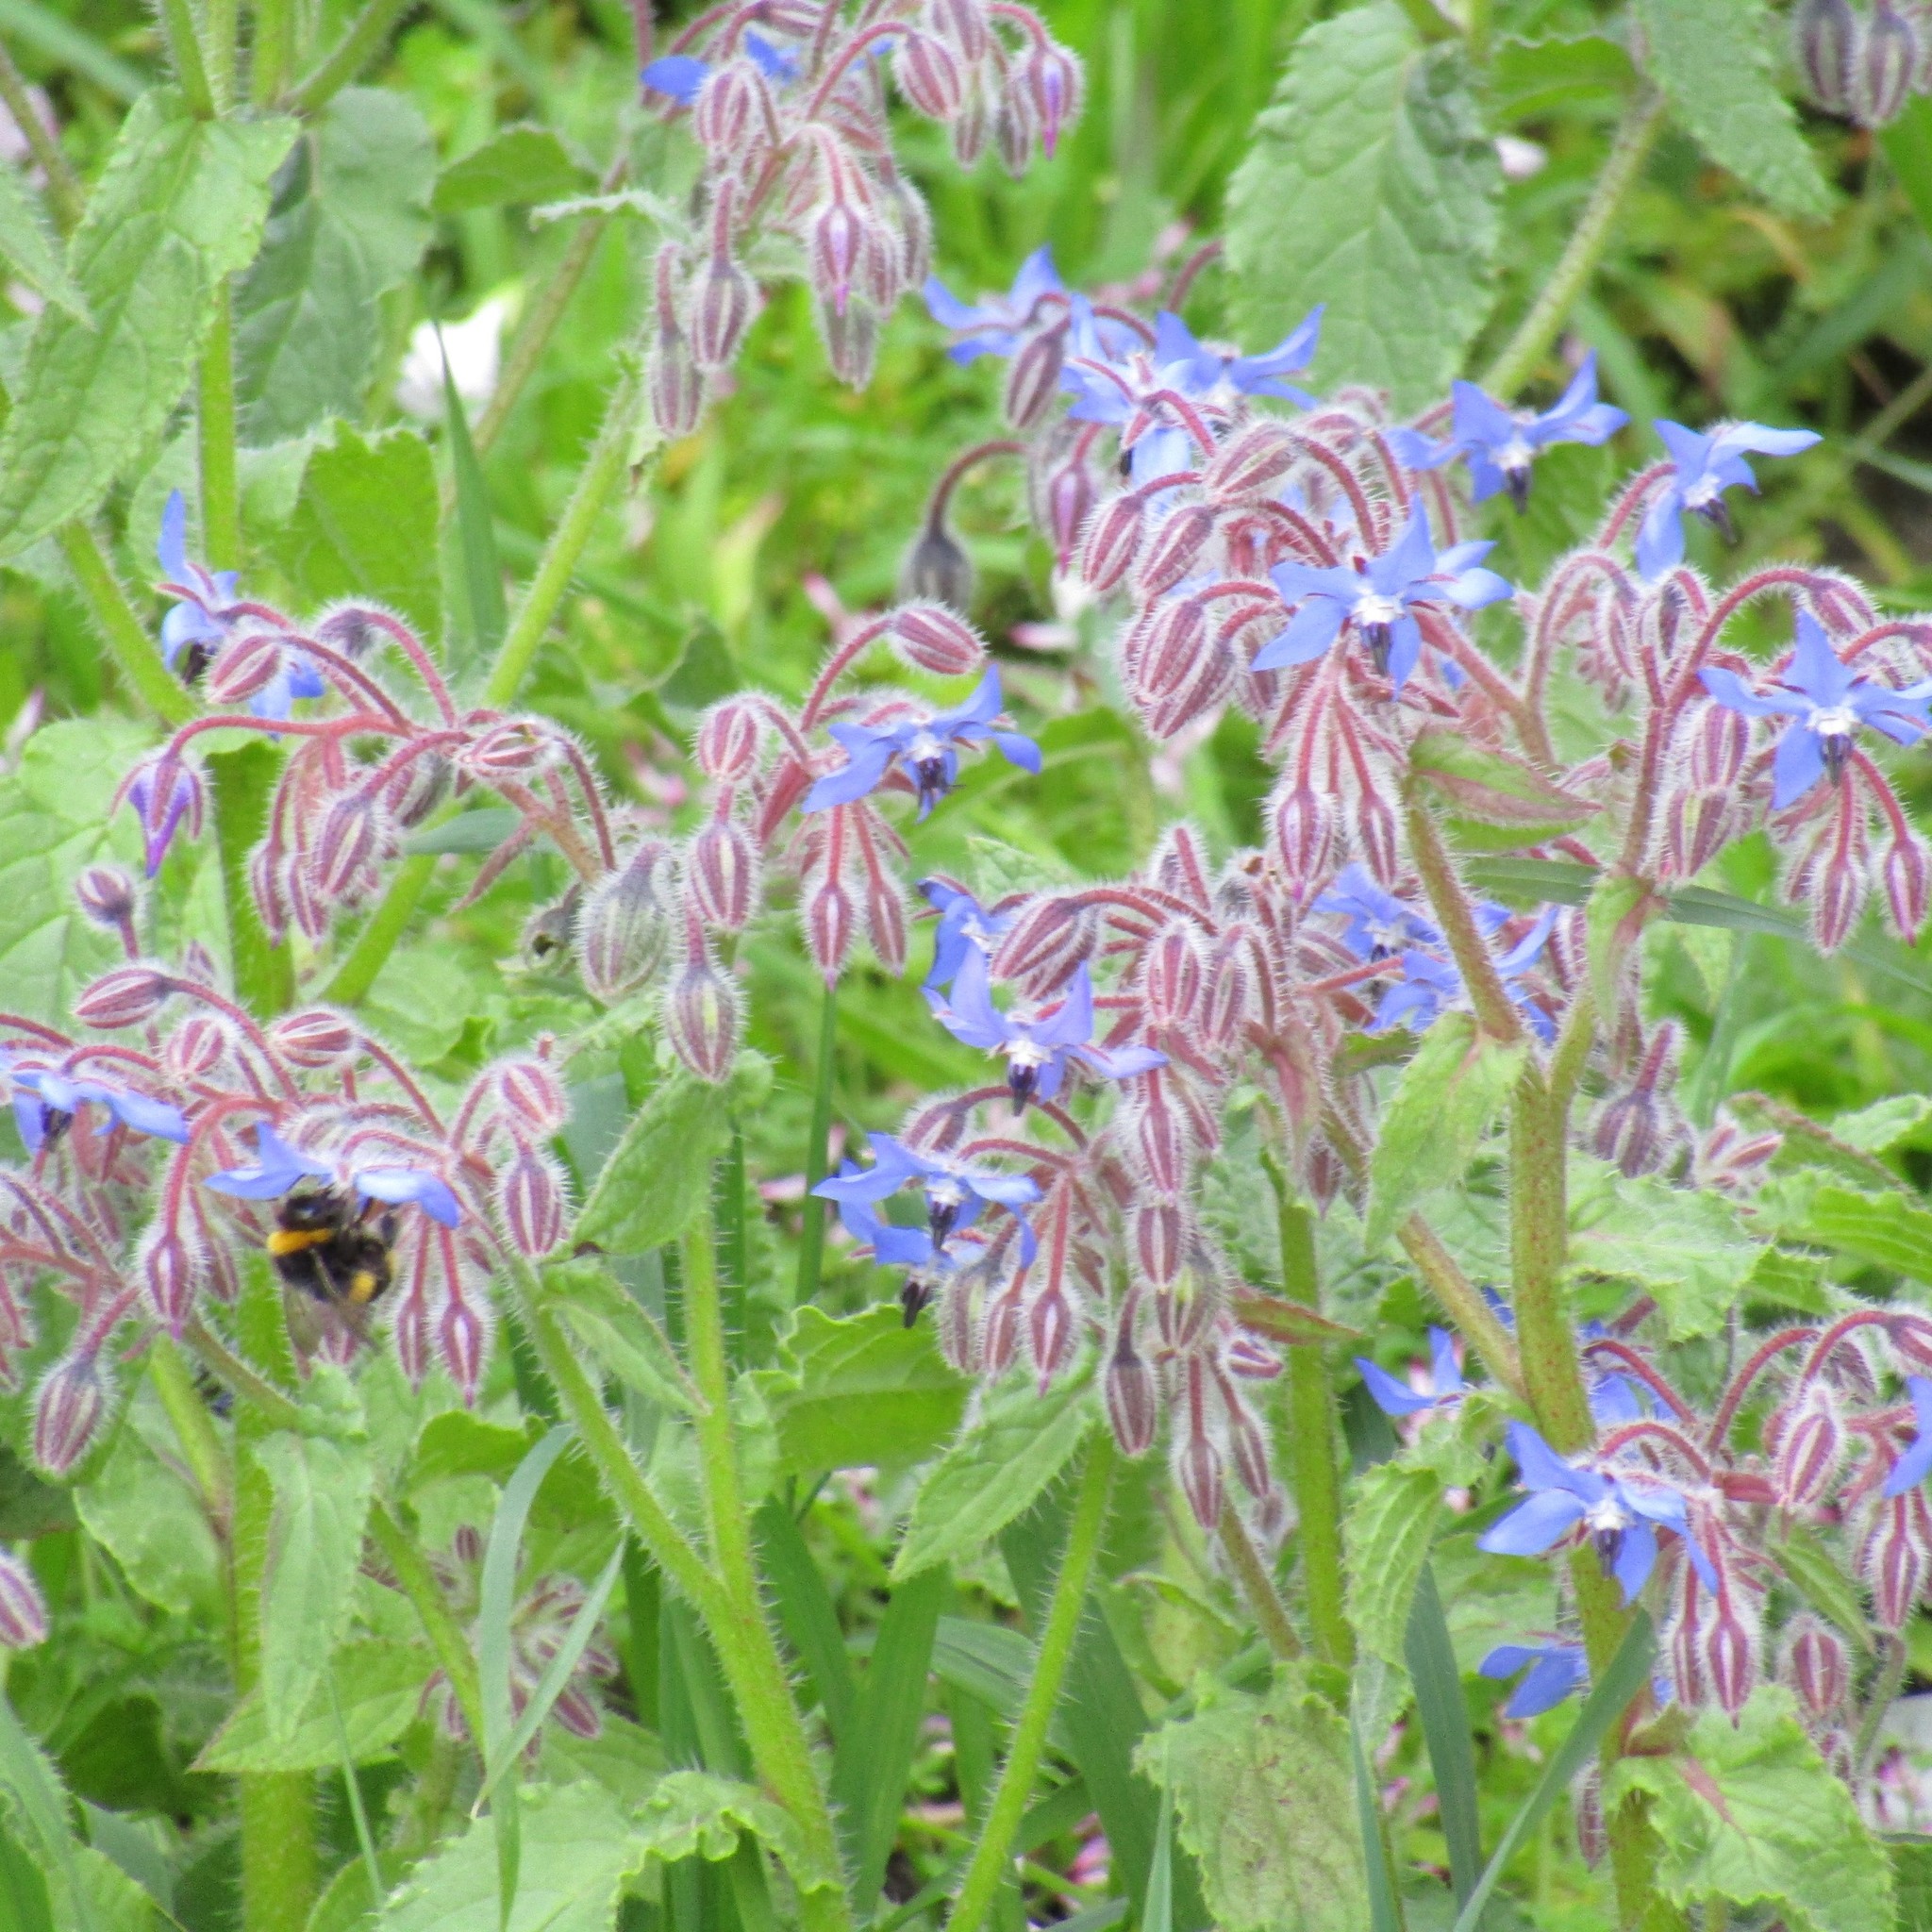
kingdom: Plantae
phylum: Tracheophyta
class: Magnoliopsida
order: Boraginales
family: Boraginaceae
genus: Borago
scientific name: Borago officinalis
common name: Borage
